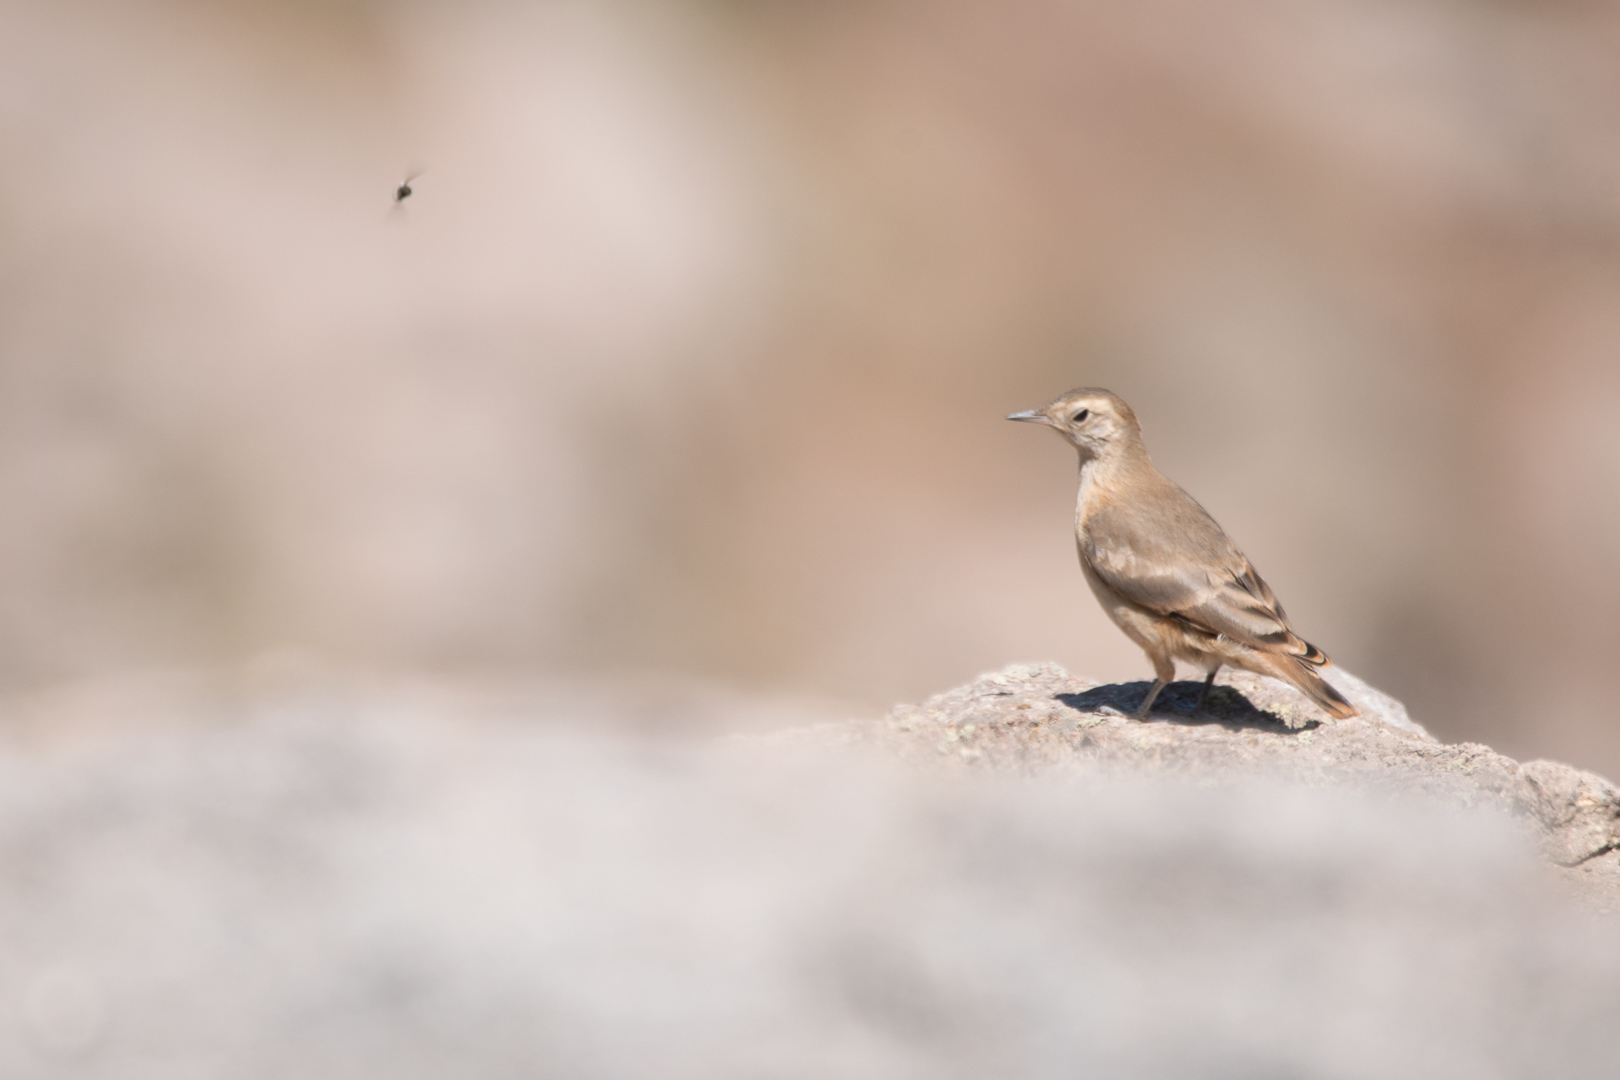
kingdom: Animalia
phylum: Chordata
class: Aves
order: Passeriformes
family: Furnariidae
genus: Geositta
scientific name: Geositta rufipennis
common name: Rufous-banded miner
